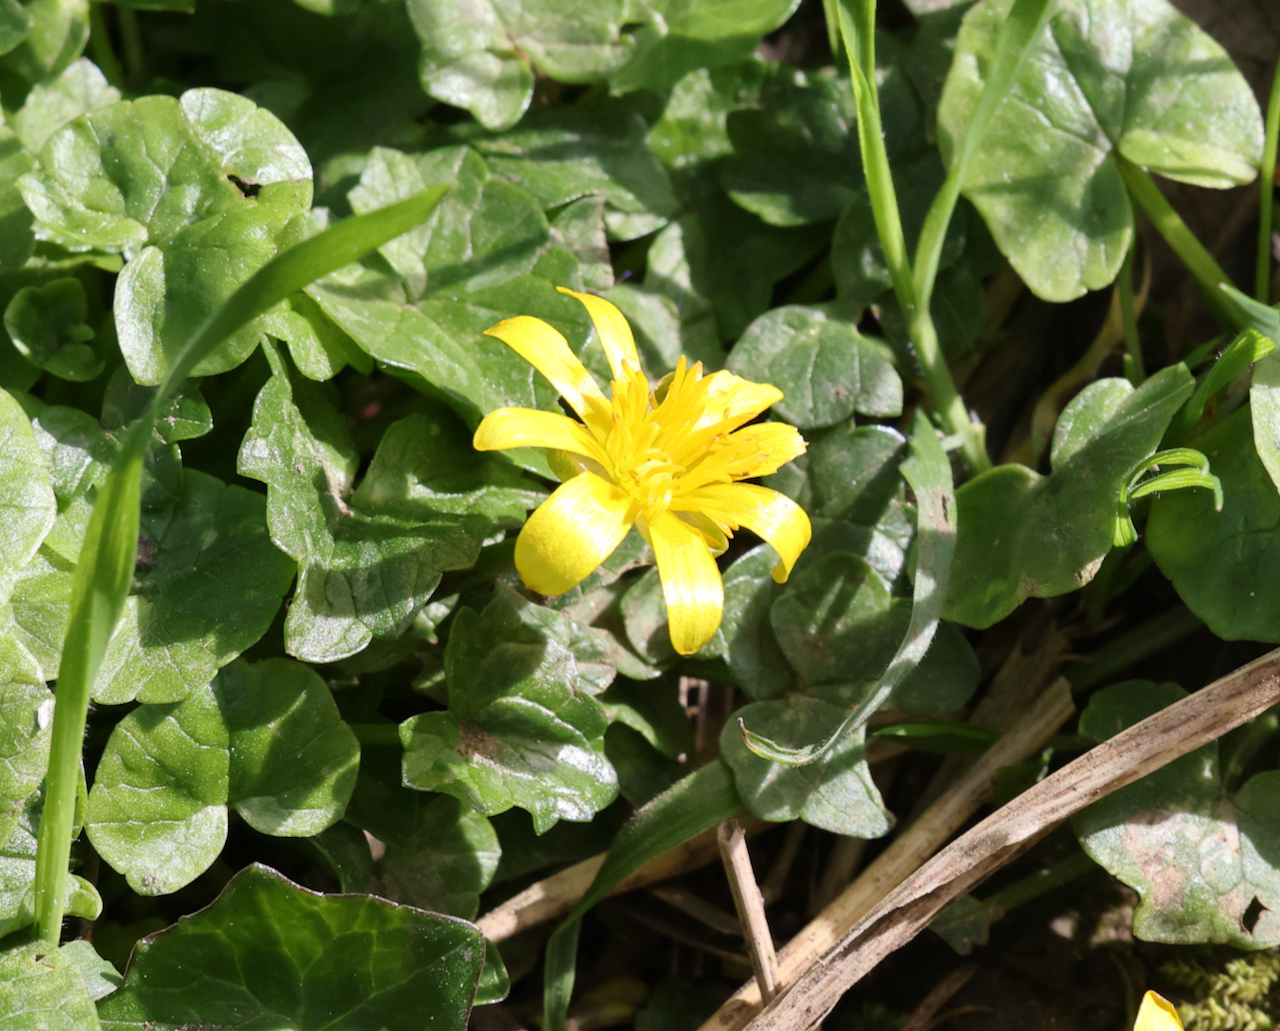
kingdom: Plantae
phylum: Tracheophyta
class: Magnoliopsida
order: Ranunculales
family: Ranunculaceae
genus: Ficaria
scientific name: Ficaria verna
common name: Lesser celandine
